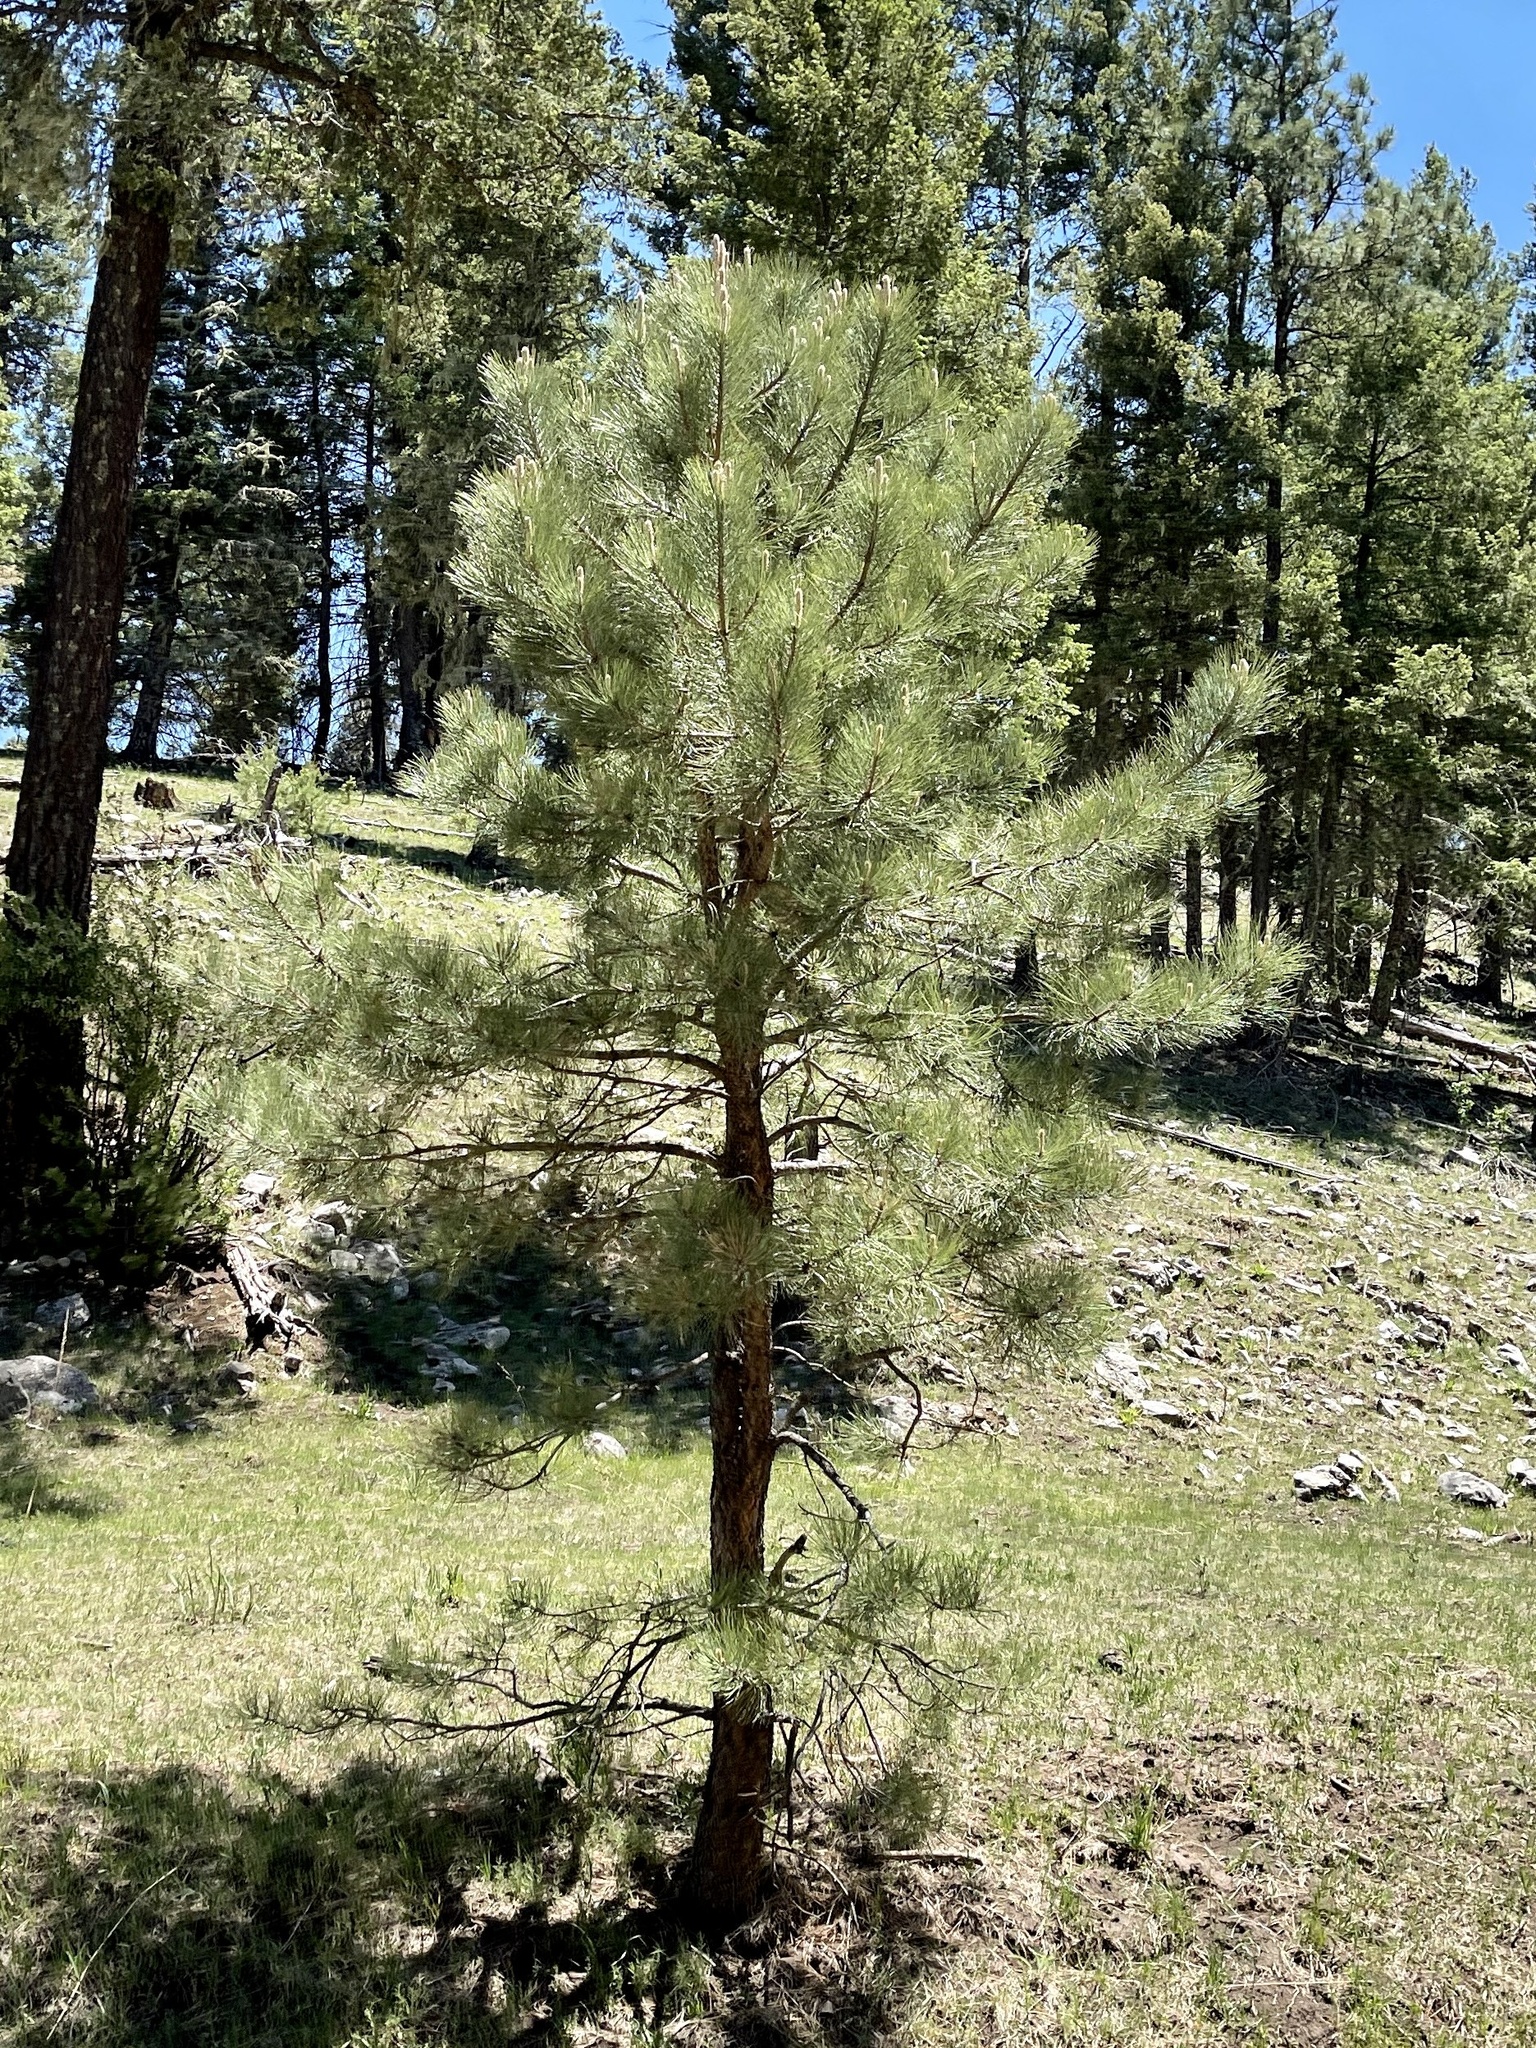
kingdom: Plantae
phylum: Tracheophyta
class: Pinopsida
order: Pinales
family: Pinaceae
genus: Pinus
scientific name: Pinus ponderosa
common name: Western yellow-pine
